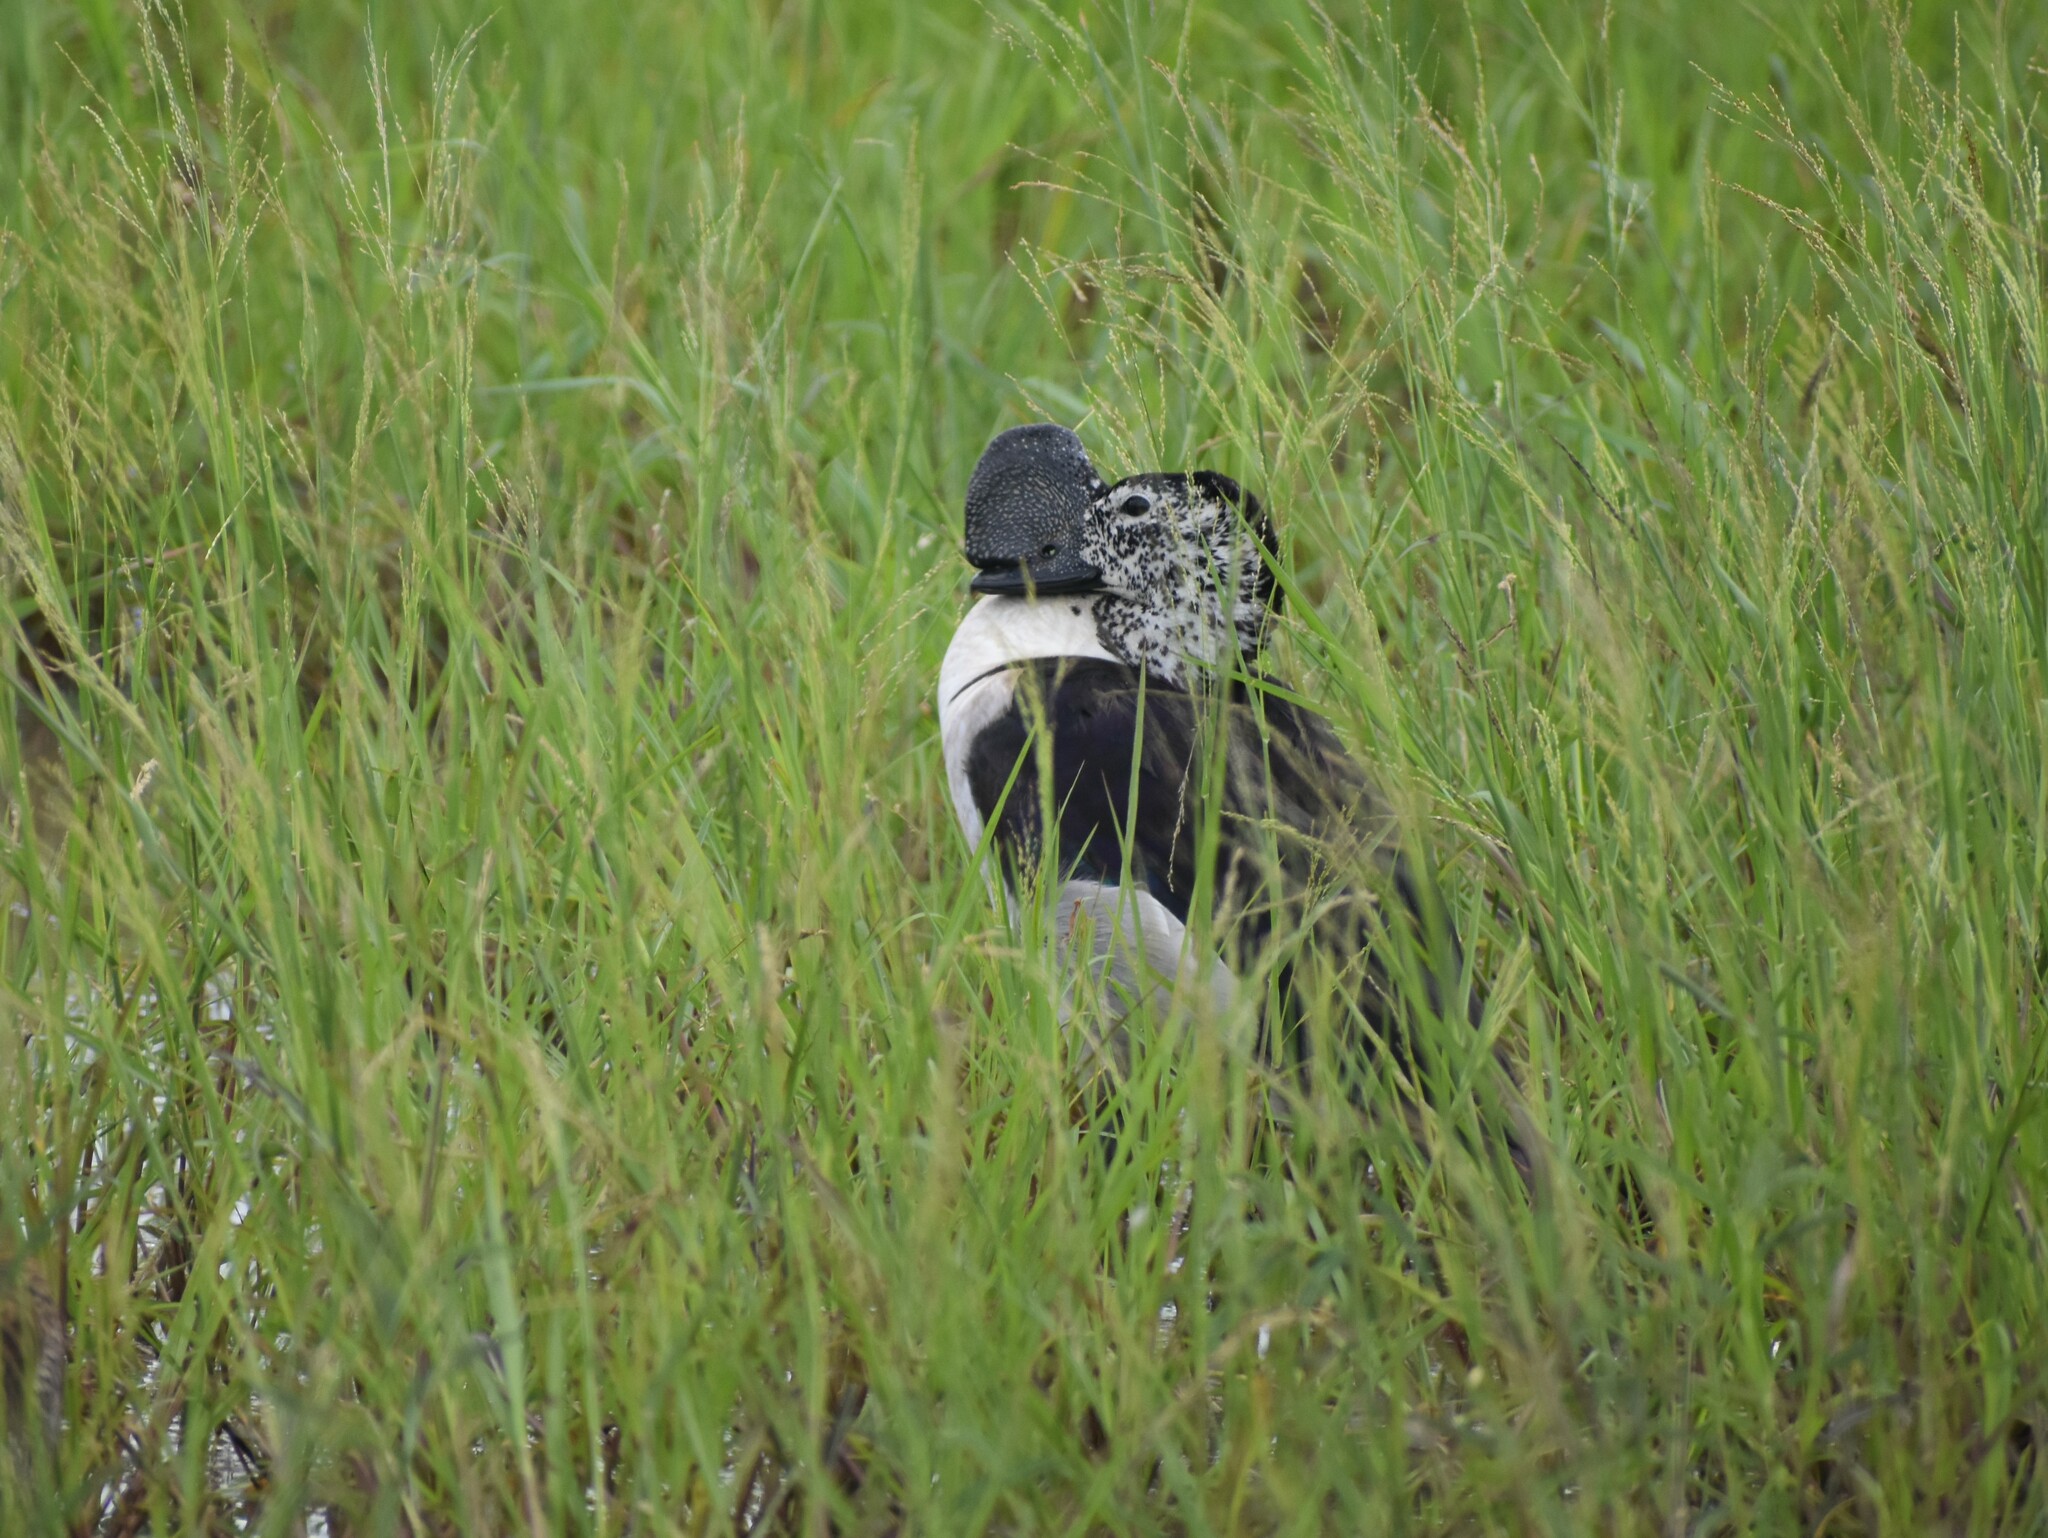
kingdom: Animalia
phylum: Chordata
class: Aves
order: Anseriformes
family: Anatidae
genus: Sarkidiornis
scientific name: Sarkidiornis melanotos
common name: Comb duck
